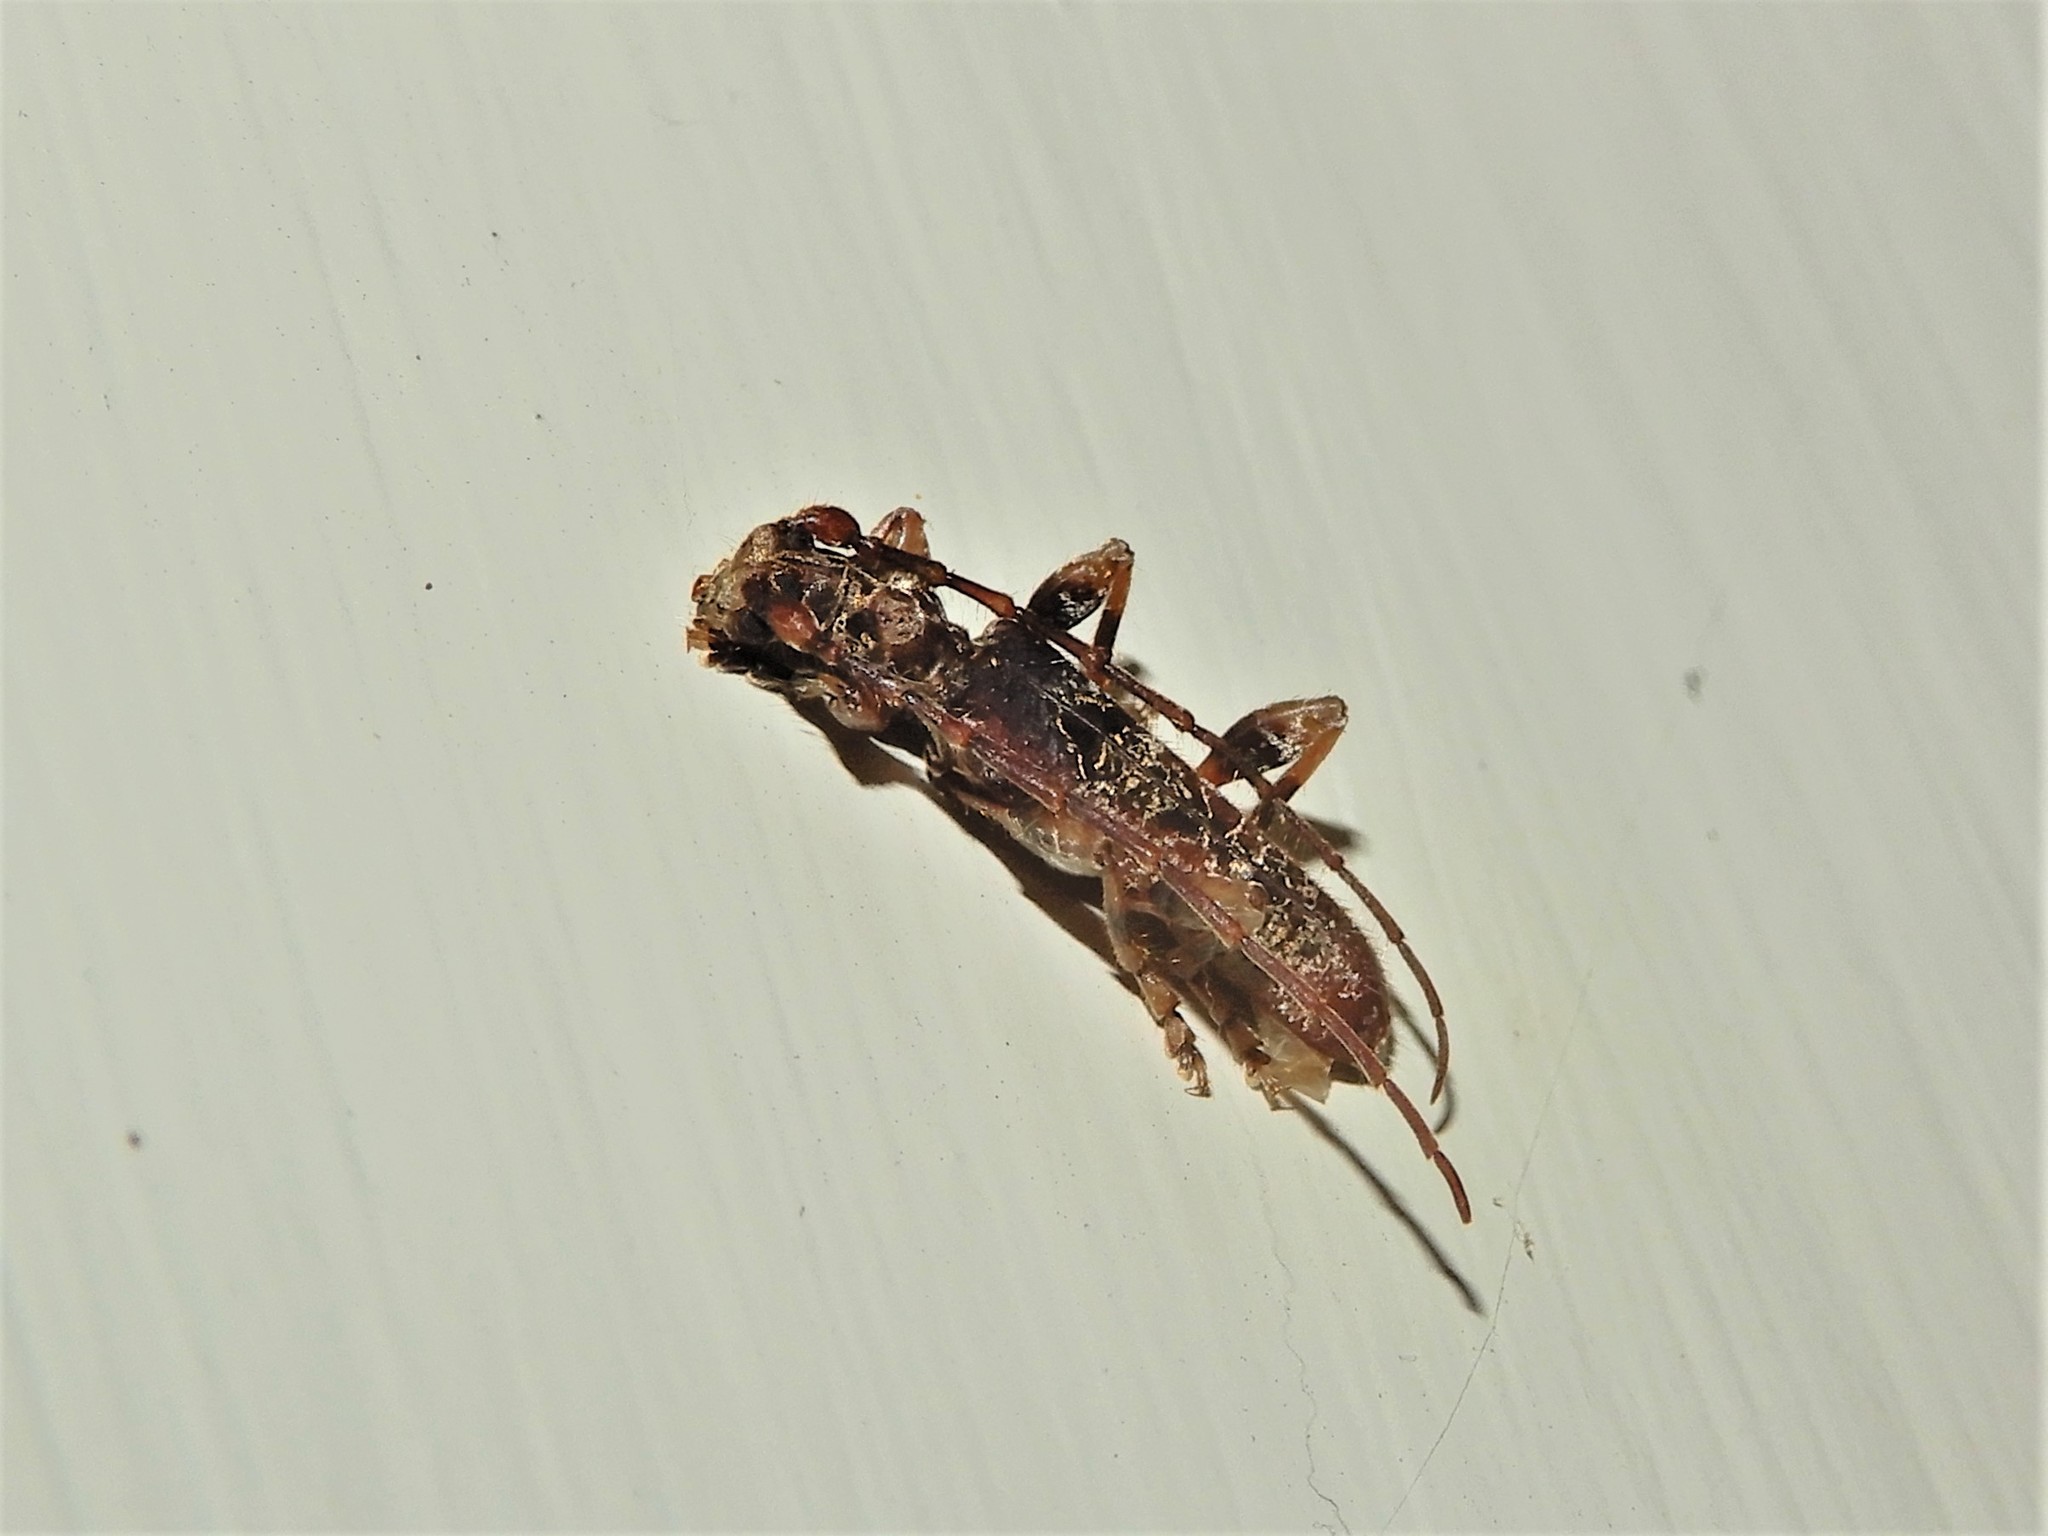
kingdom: Animalia
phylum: Arthropoda
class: Insecta
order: Coleoptera
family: Cerambycidae
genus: Tessaromma
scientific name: Tessaromma undatum
